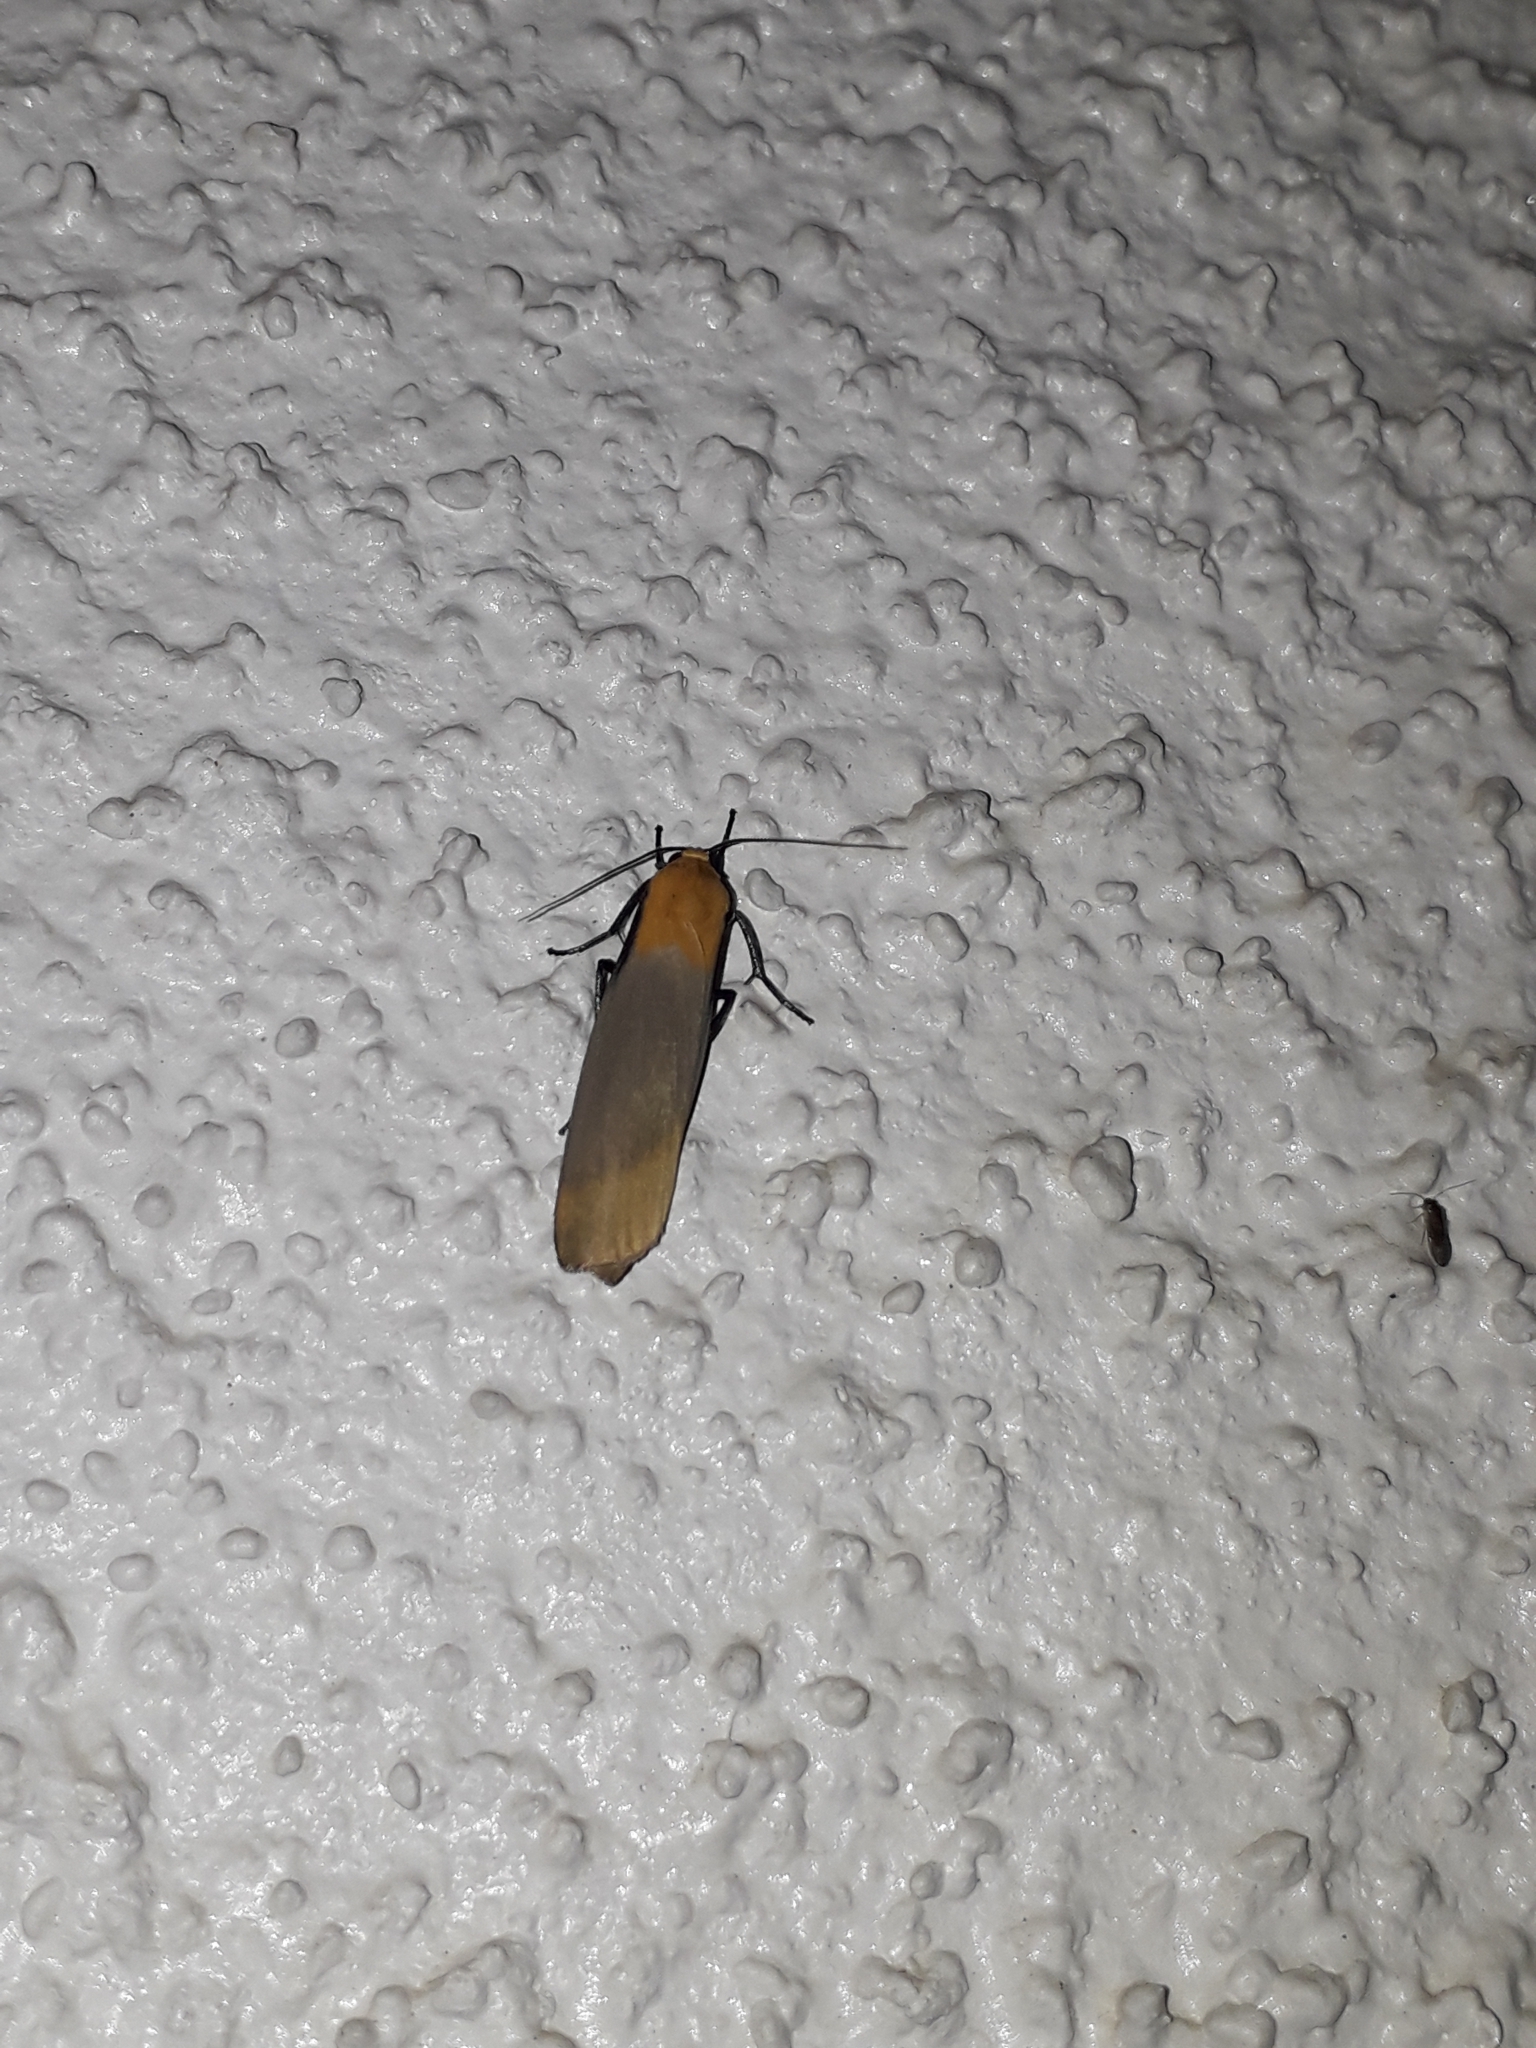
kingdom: Animalia
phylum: Arthropoda
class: Insecta
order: Lepidoptera
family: Erebidae
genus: Lithosia
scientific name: Lithosia quadra
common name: Four-spotted footman
